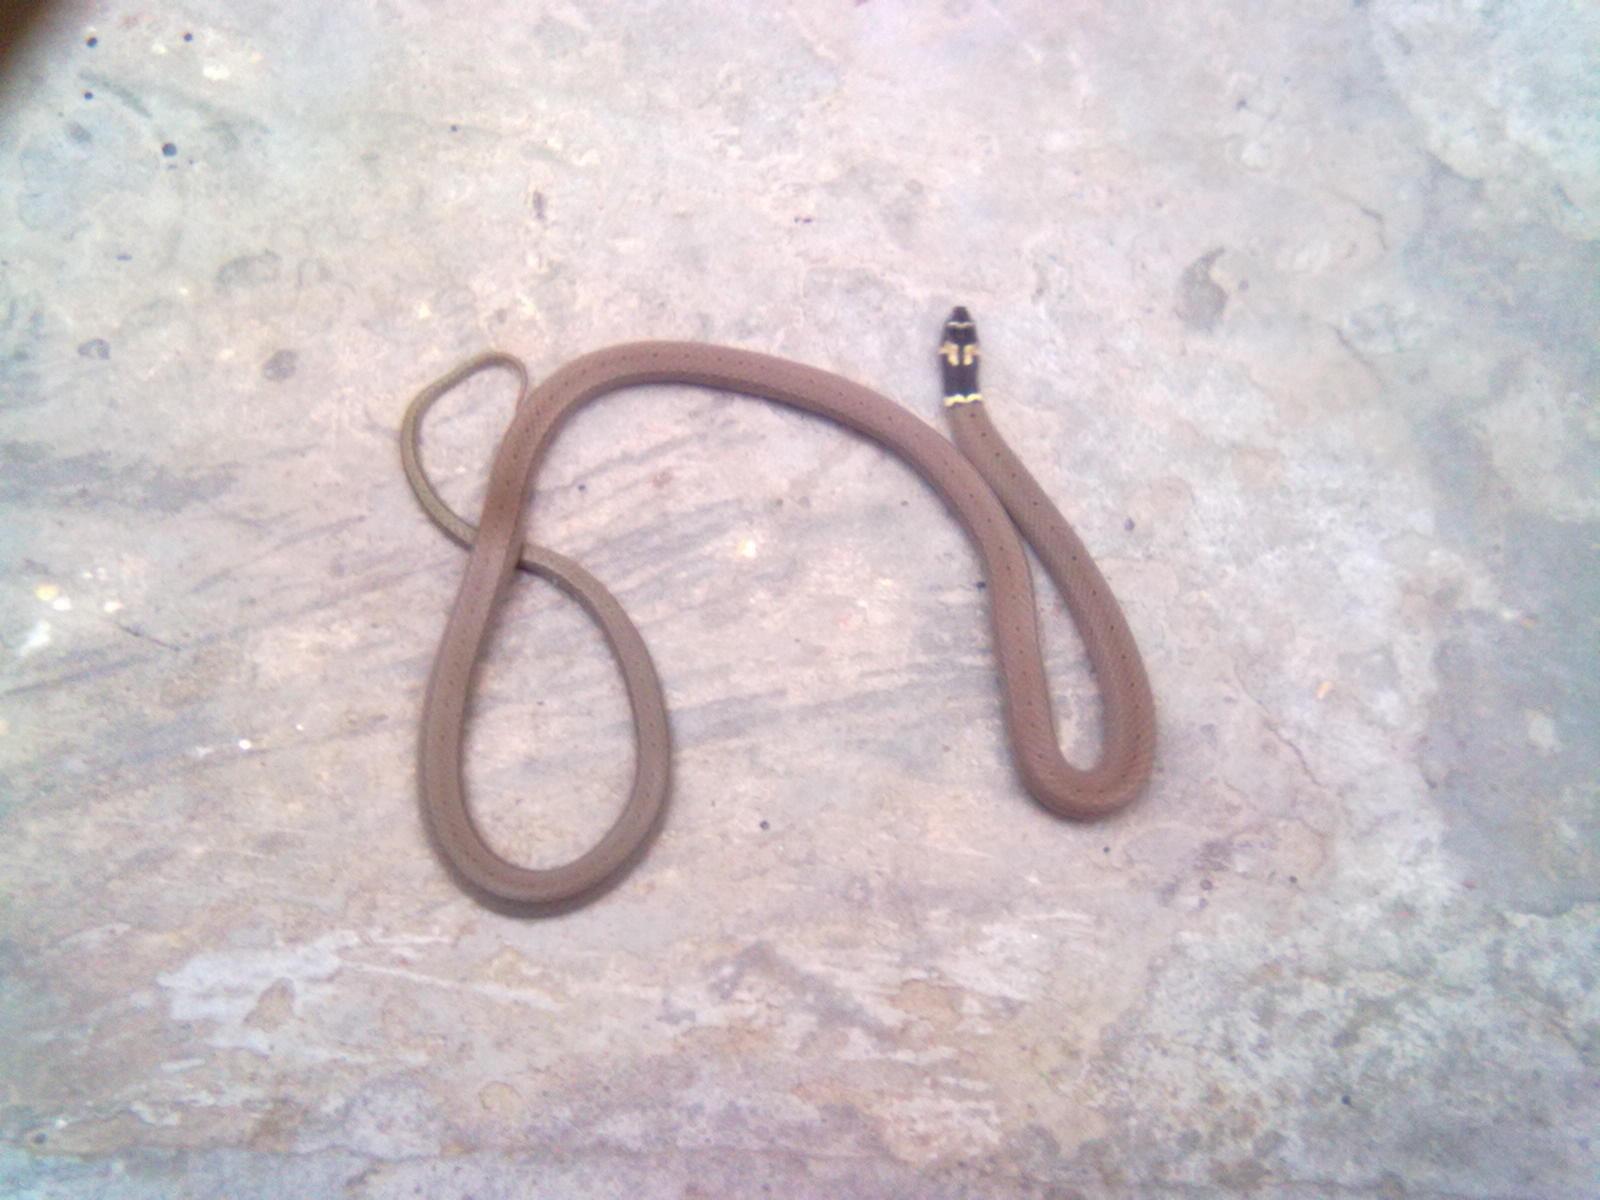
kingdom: Animalia
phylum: Chordata
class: Squamata
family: Colubridae
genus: Sibynophis
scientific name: Sibynophis subpunctatus
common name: Black-headed snake
